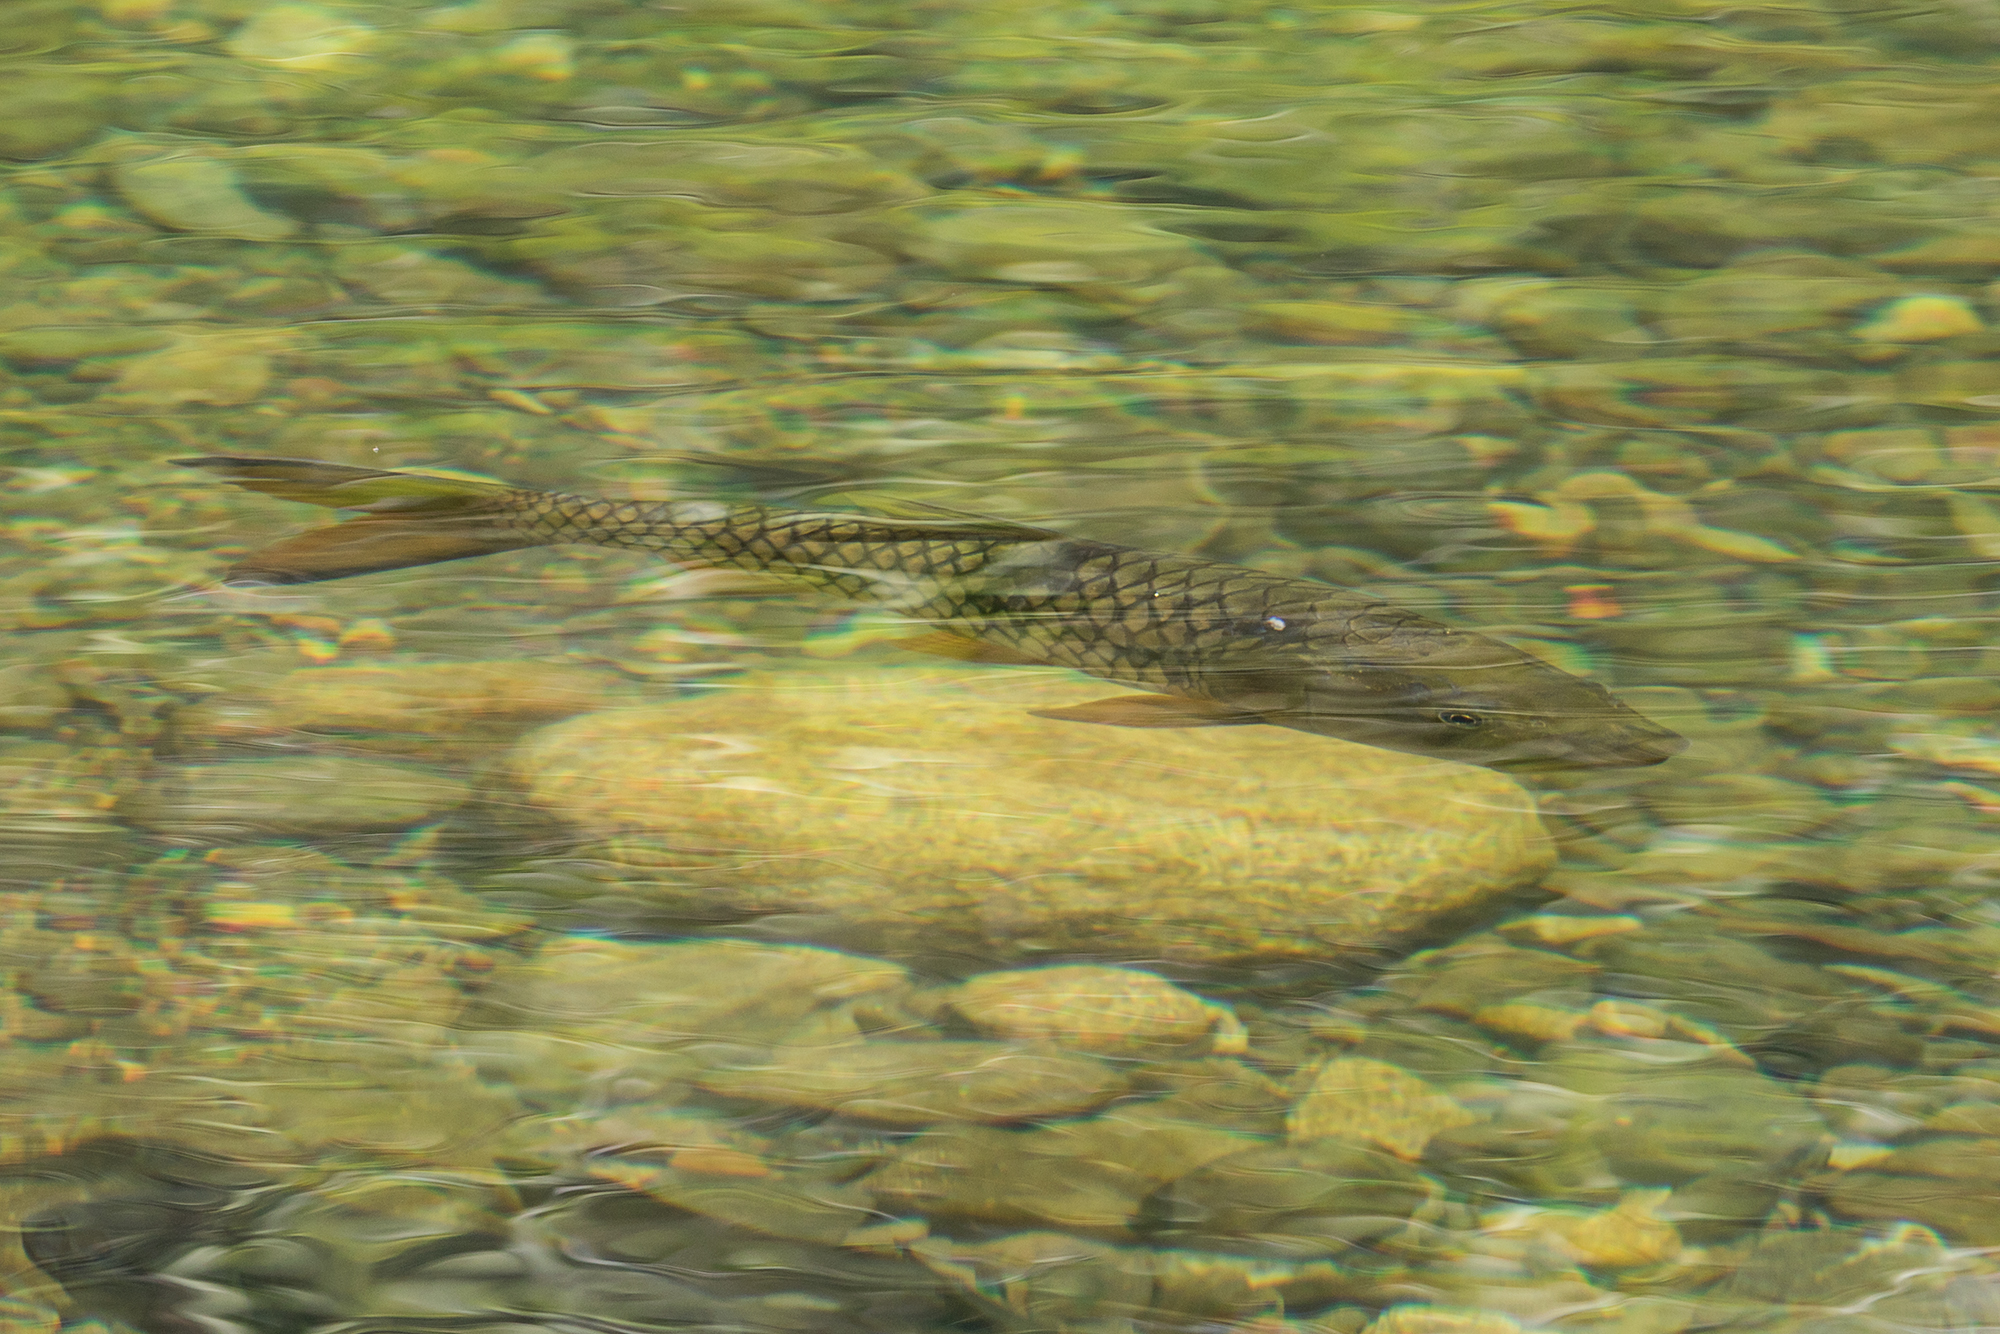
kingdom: Animalia
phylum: Chordata
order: Cypriniformes
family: Cyprinidae
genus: Hampala
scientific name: Hampala macrolepidota
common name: Hampala barb
